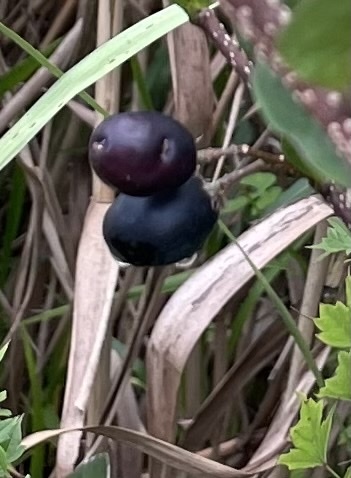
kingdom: Plantae
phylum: Tracheophyta
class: Magnoliopsida
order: Malpighiales
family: Chrysobalanaceae
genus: Chrysobalanus
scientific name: Chrysobalanus icaco
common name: Coco plum
